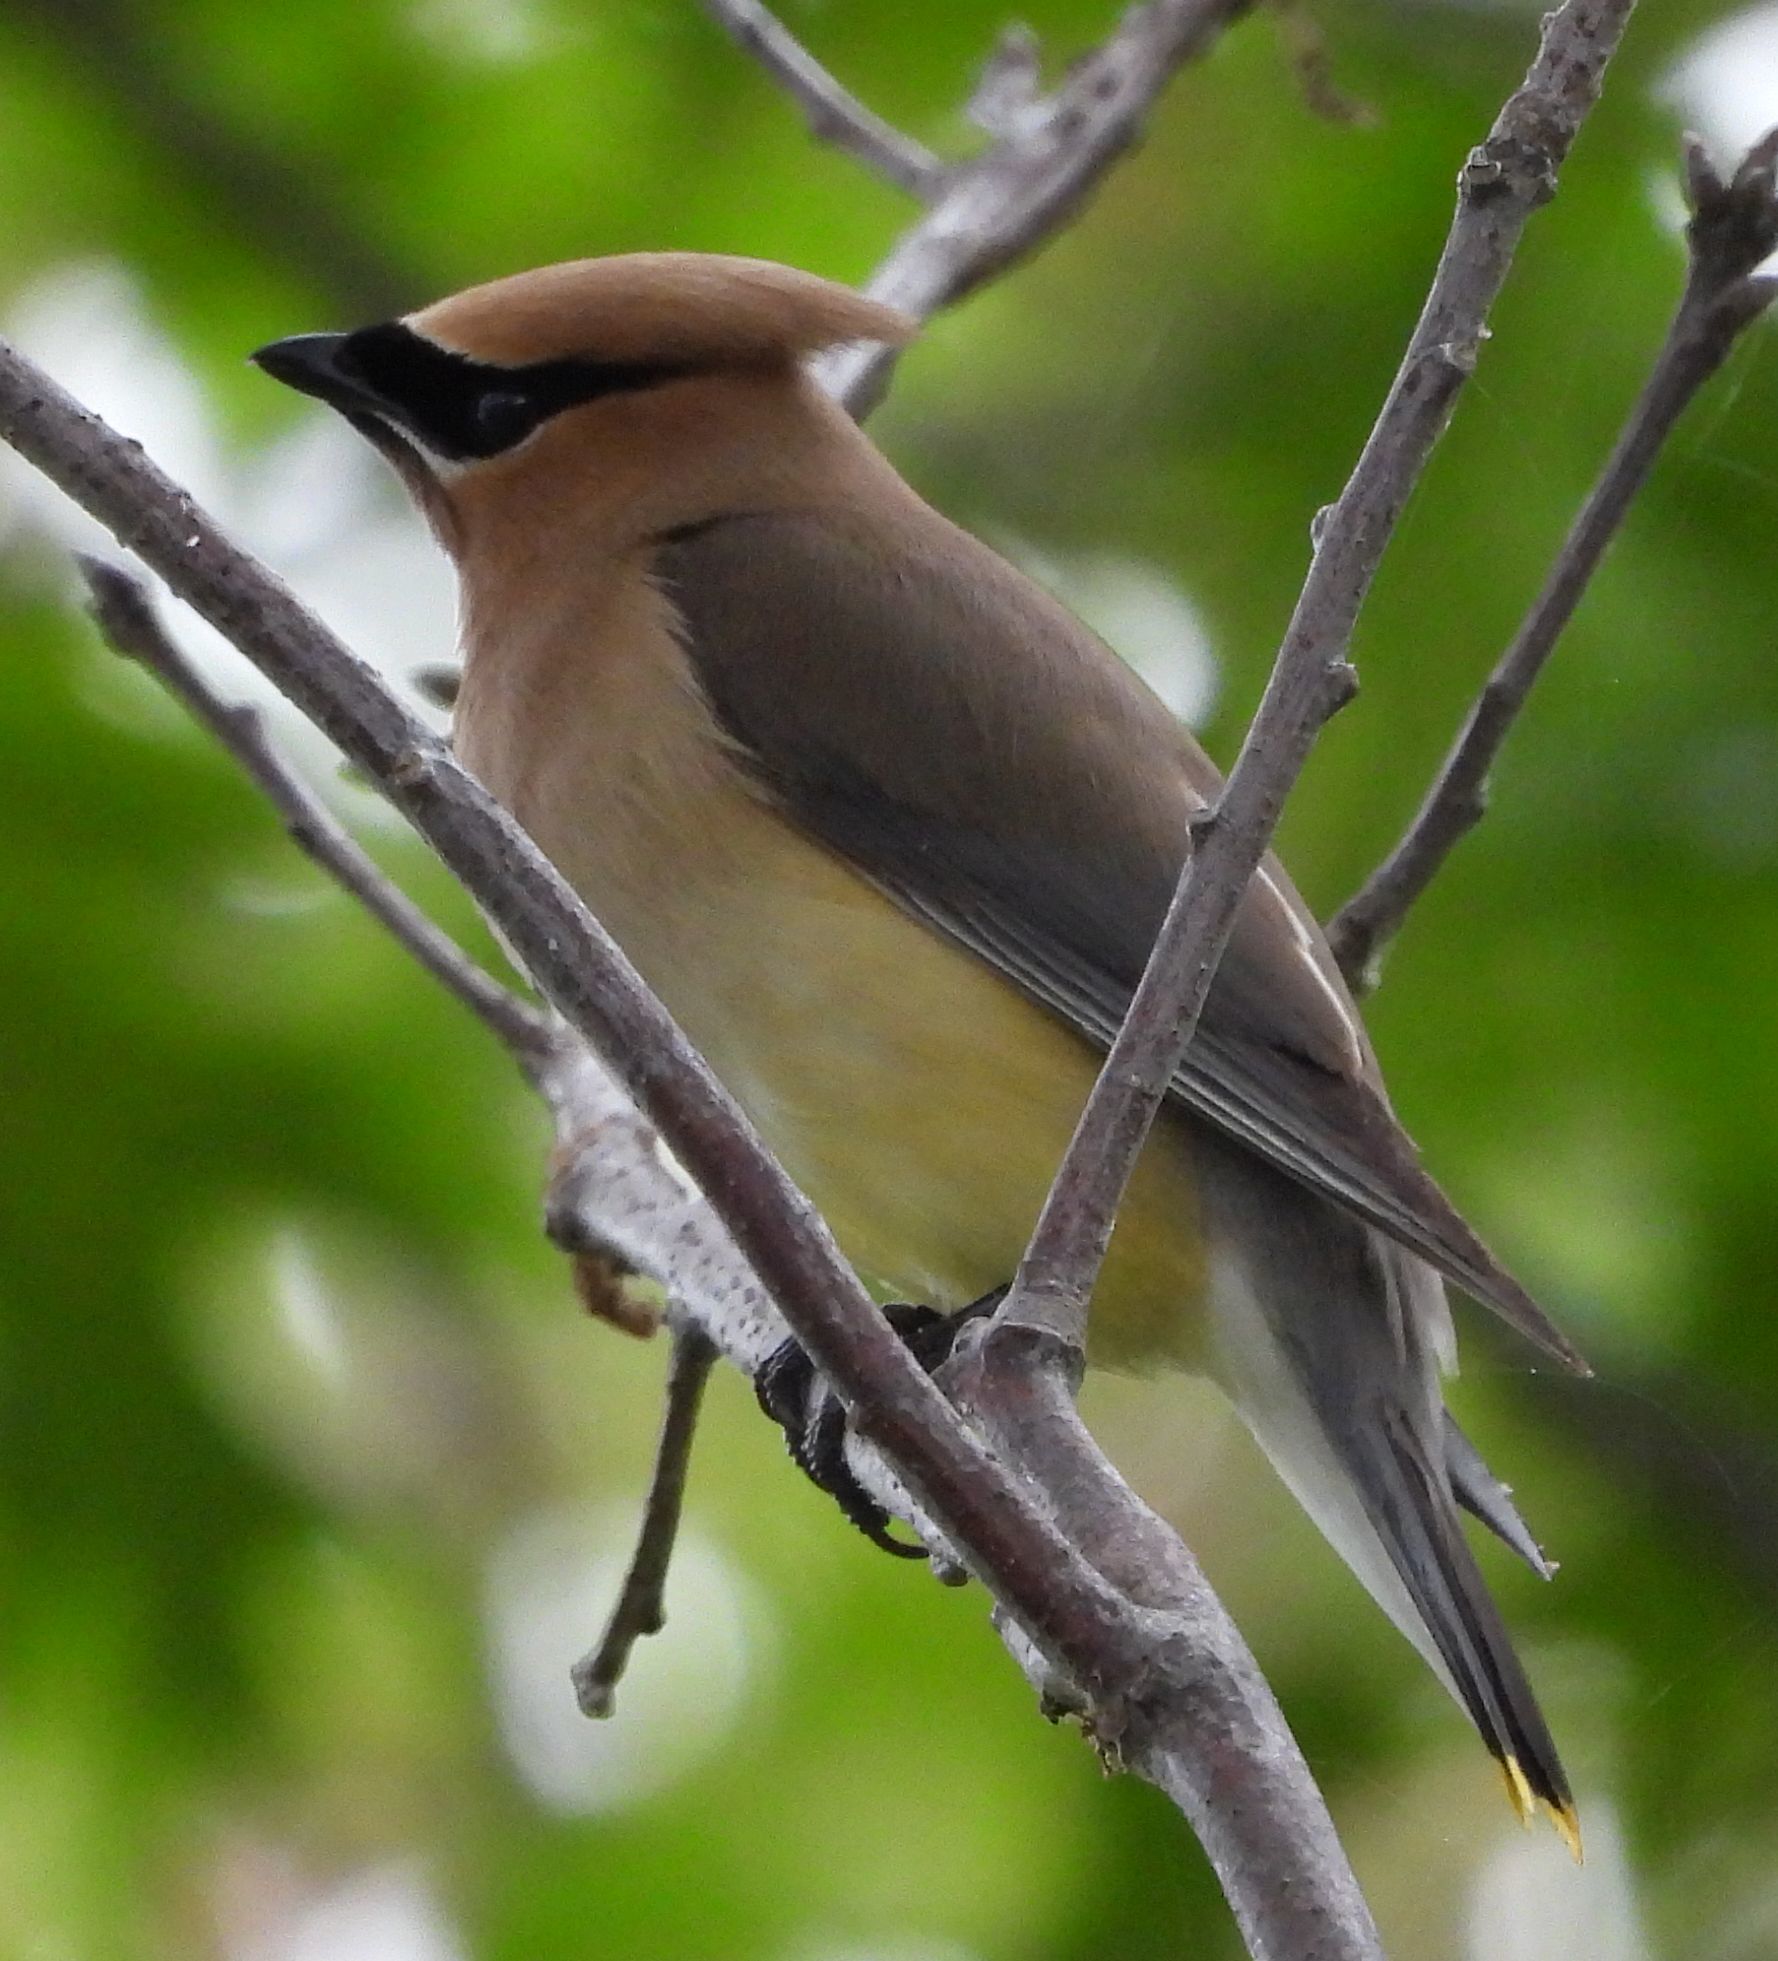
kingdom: Animalia
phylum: Chordata
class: Aves
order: Passeriformes
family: Bombycillidae
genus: Bombycilla
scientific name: Bombycilla cedrorum
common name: Cedar waxwing
